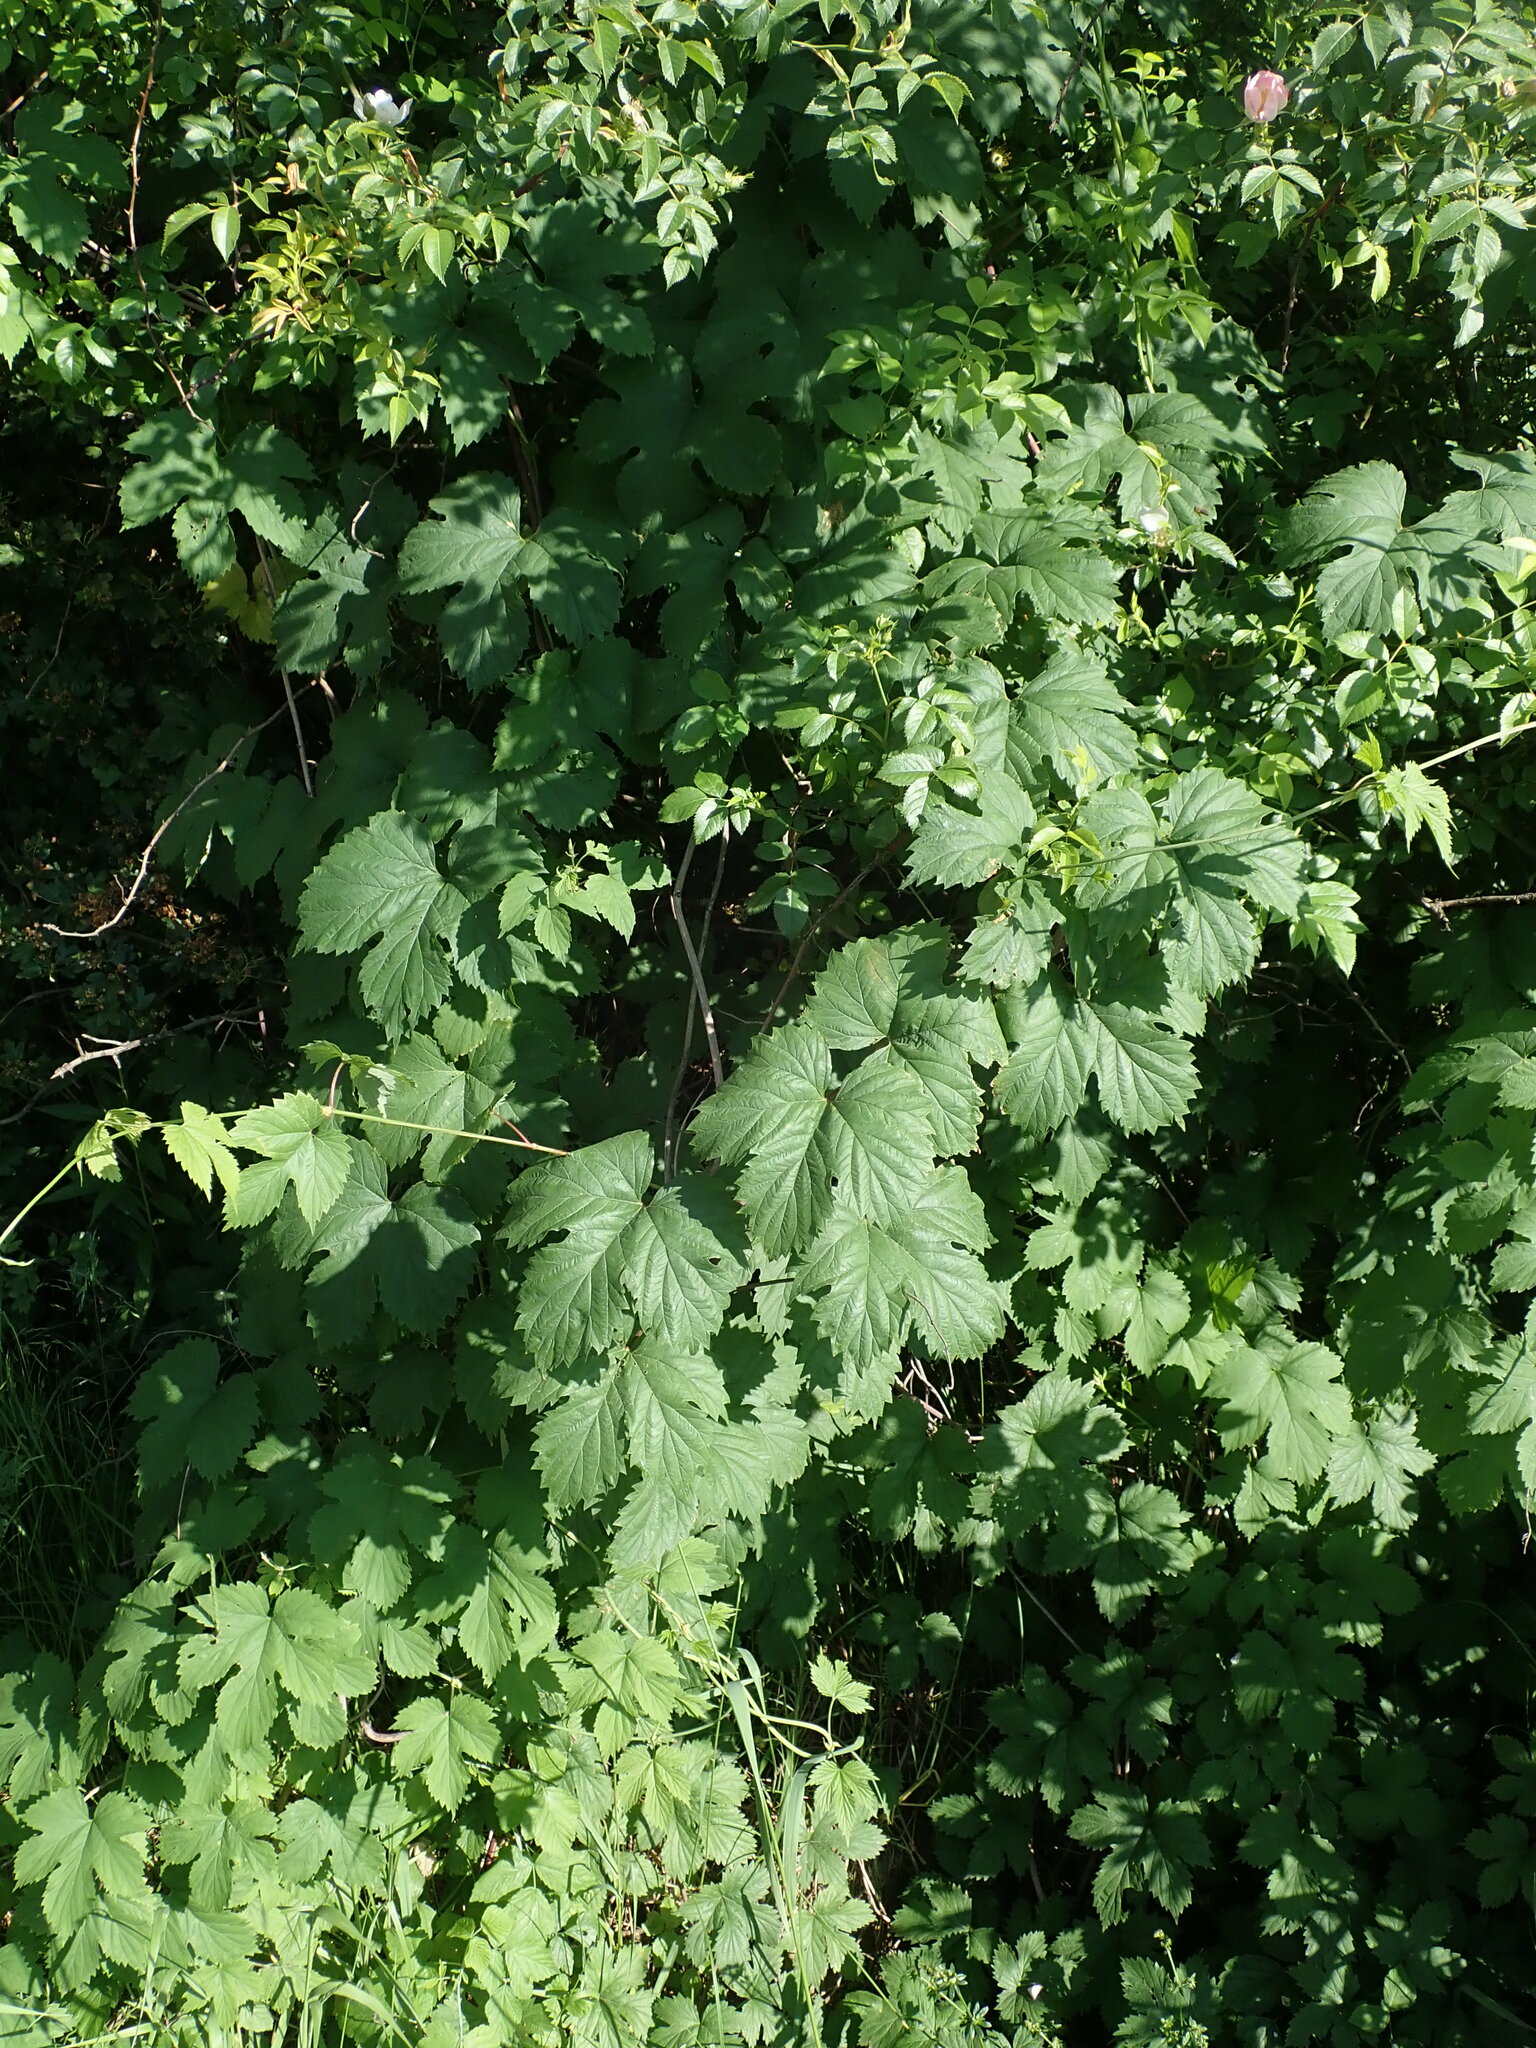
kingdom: Plantae
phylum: Tracheophyta
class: Magnoliopsida
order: Rosales
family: Cannabaceae
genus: Humulus
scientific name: Humulus lupulus
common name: Hop
